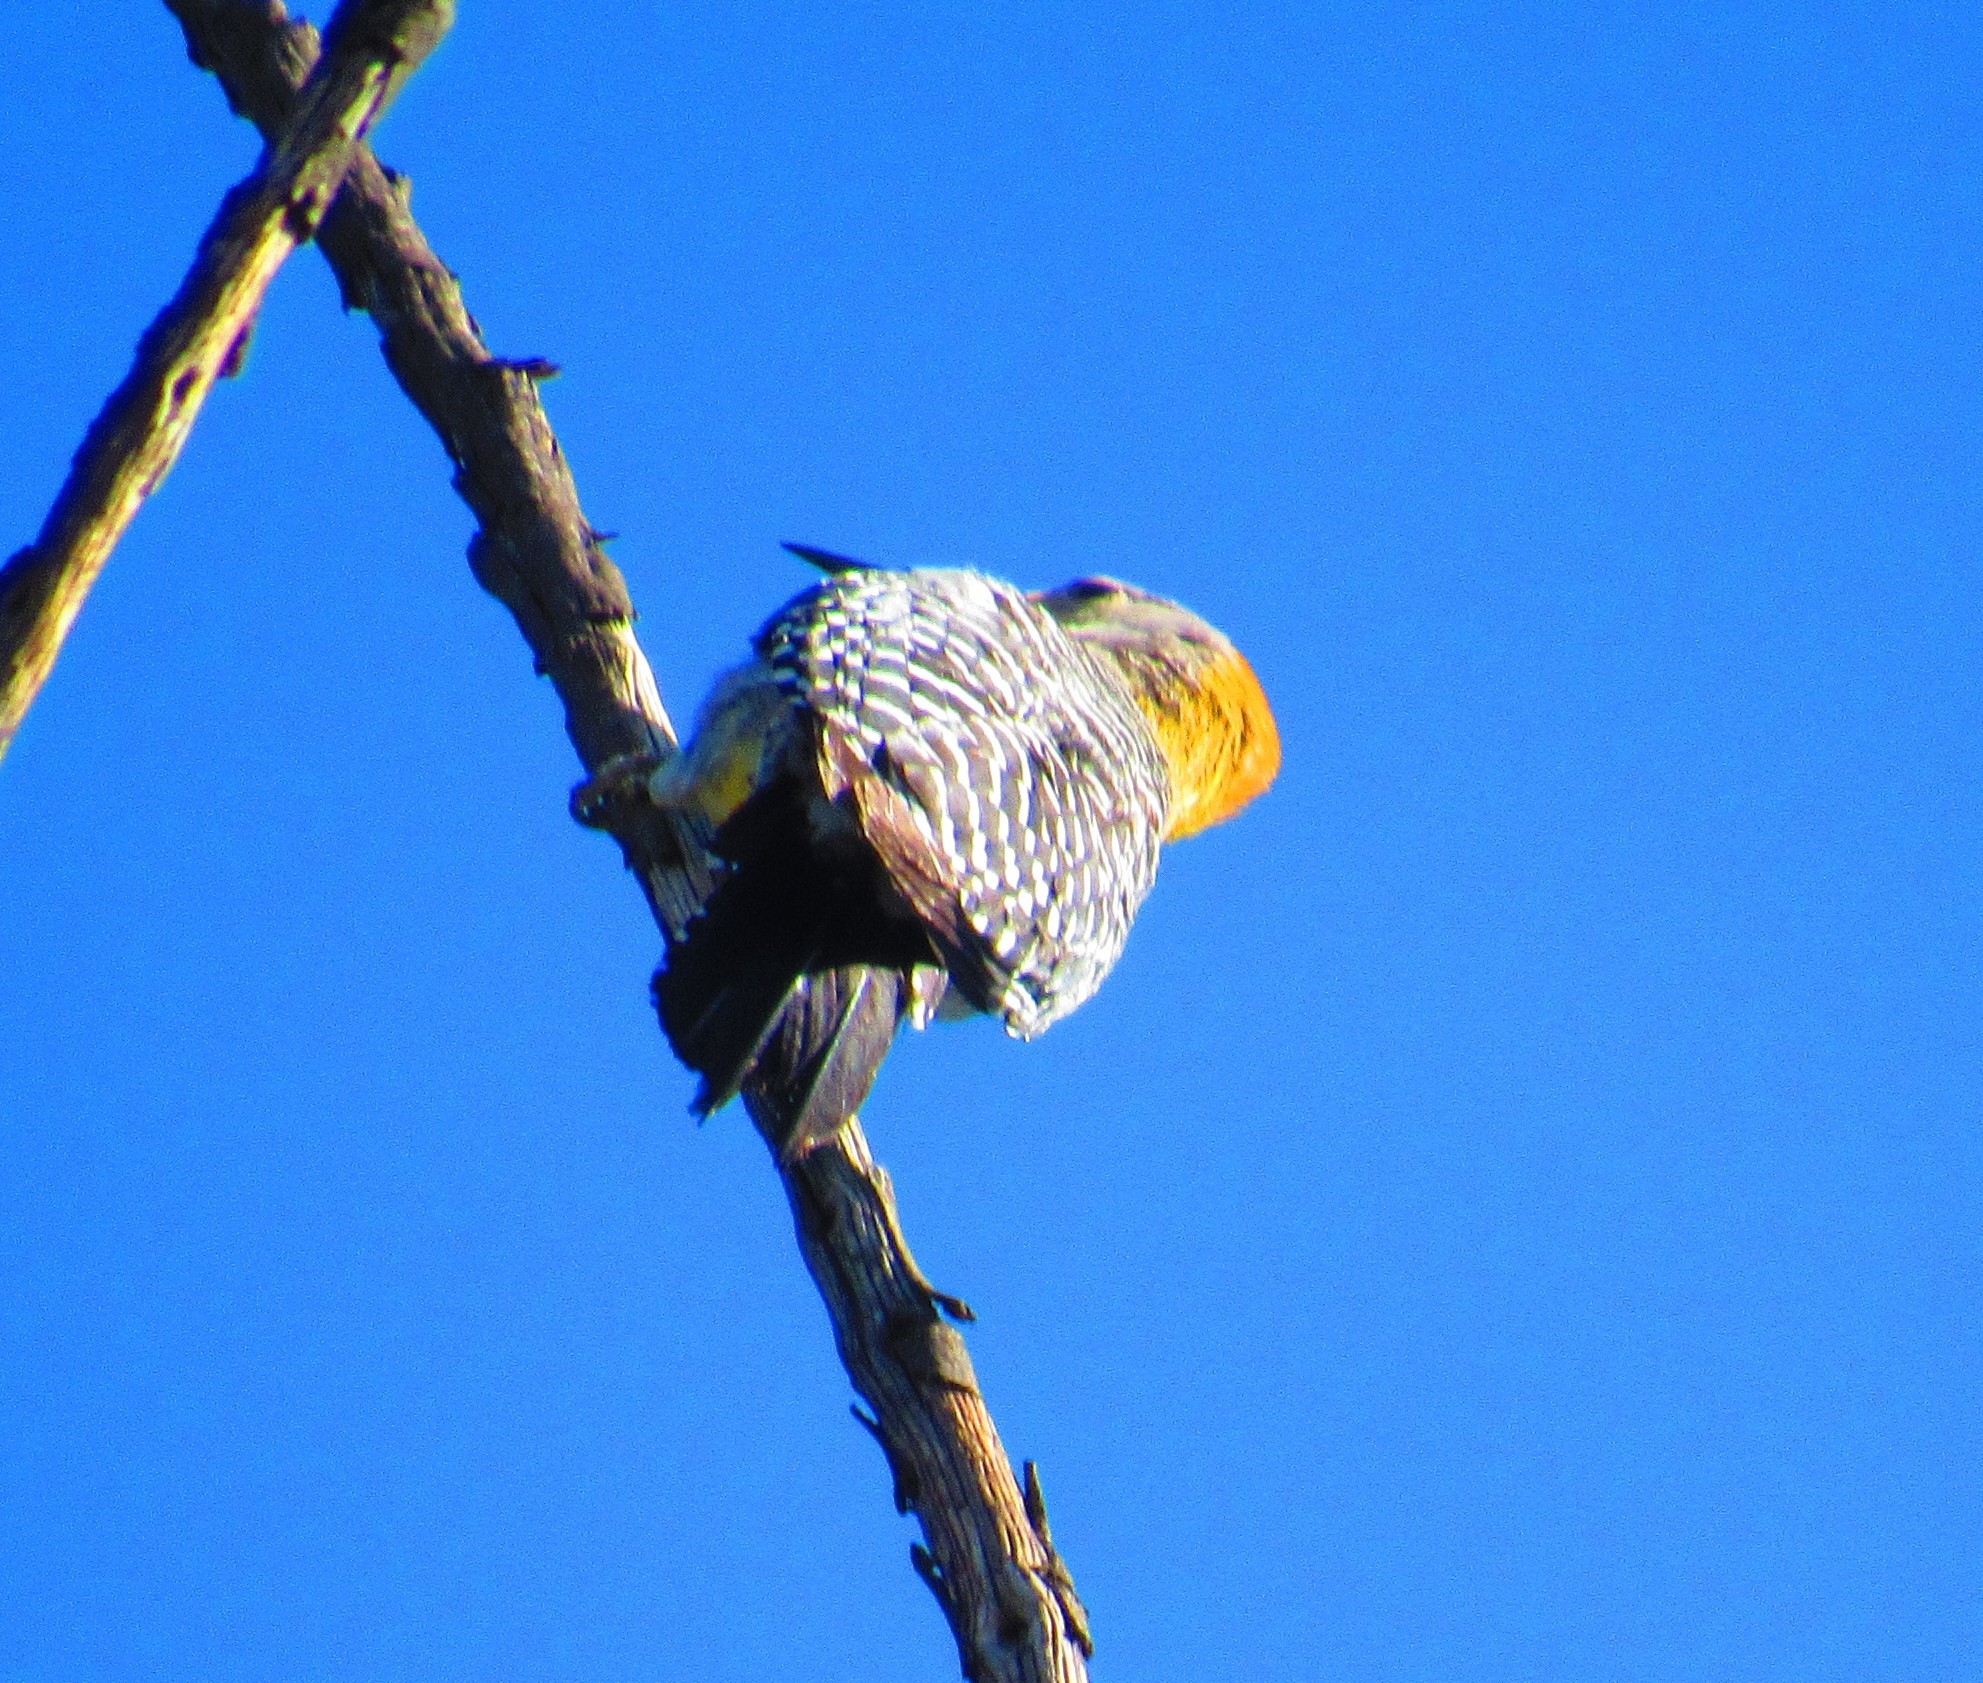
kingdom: Animalia
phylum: Chordata
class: Aves
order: Piciformes
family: Picidae
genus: Melanerpes
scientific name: Melanerpes aurifrons
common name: Golden-fronted woodpecker
